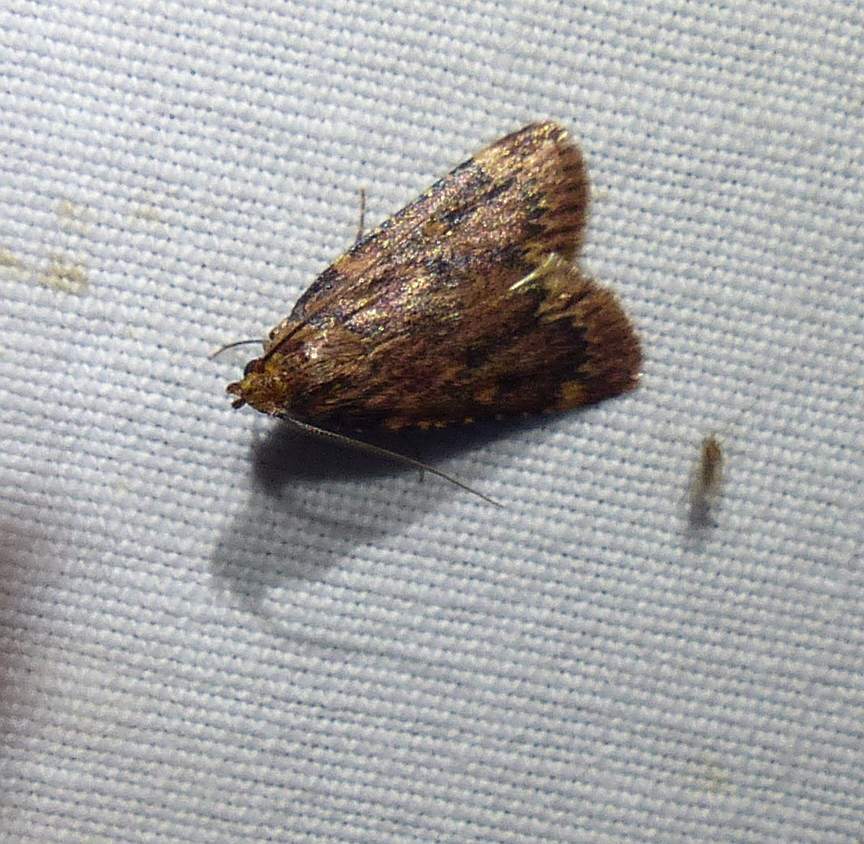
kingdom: Animalia
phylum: Arthropoda
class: Insecta
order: Lepidoptera
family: Pyralidae
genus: Aglossa
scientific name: Aglossa cuprina
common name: Grease moth
